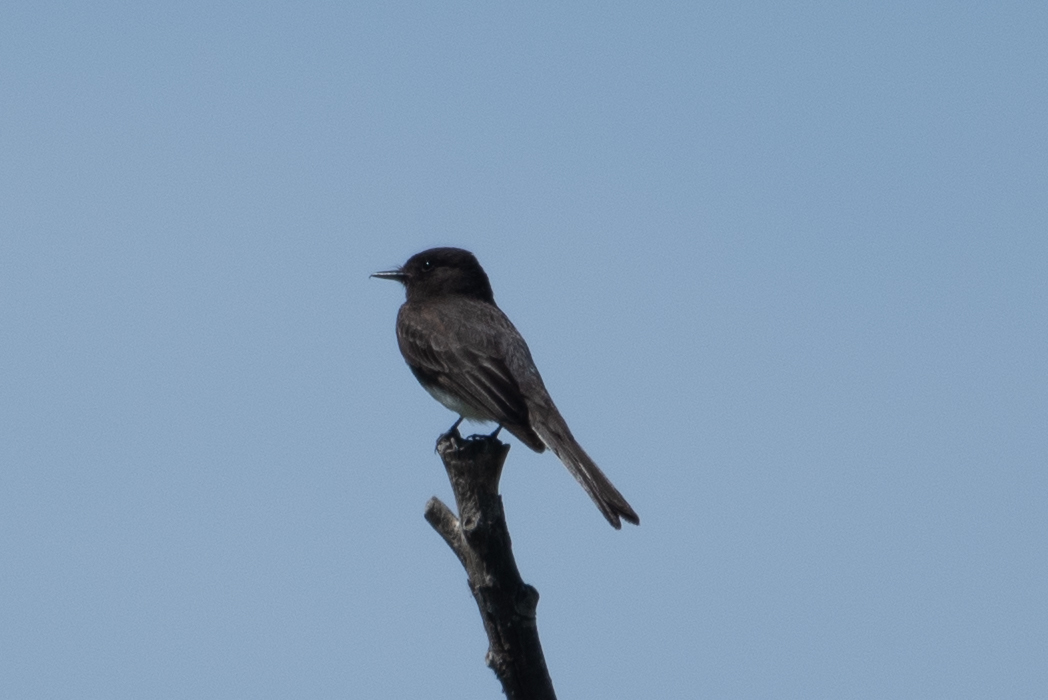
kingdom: Animalia
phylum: Chordata
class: Aves
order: Passeriformes
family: Tyrannidae
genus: Sayornis
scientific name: Sayornis nigricans
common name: Black phoebe
